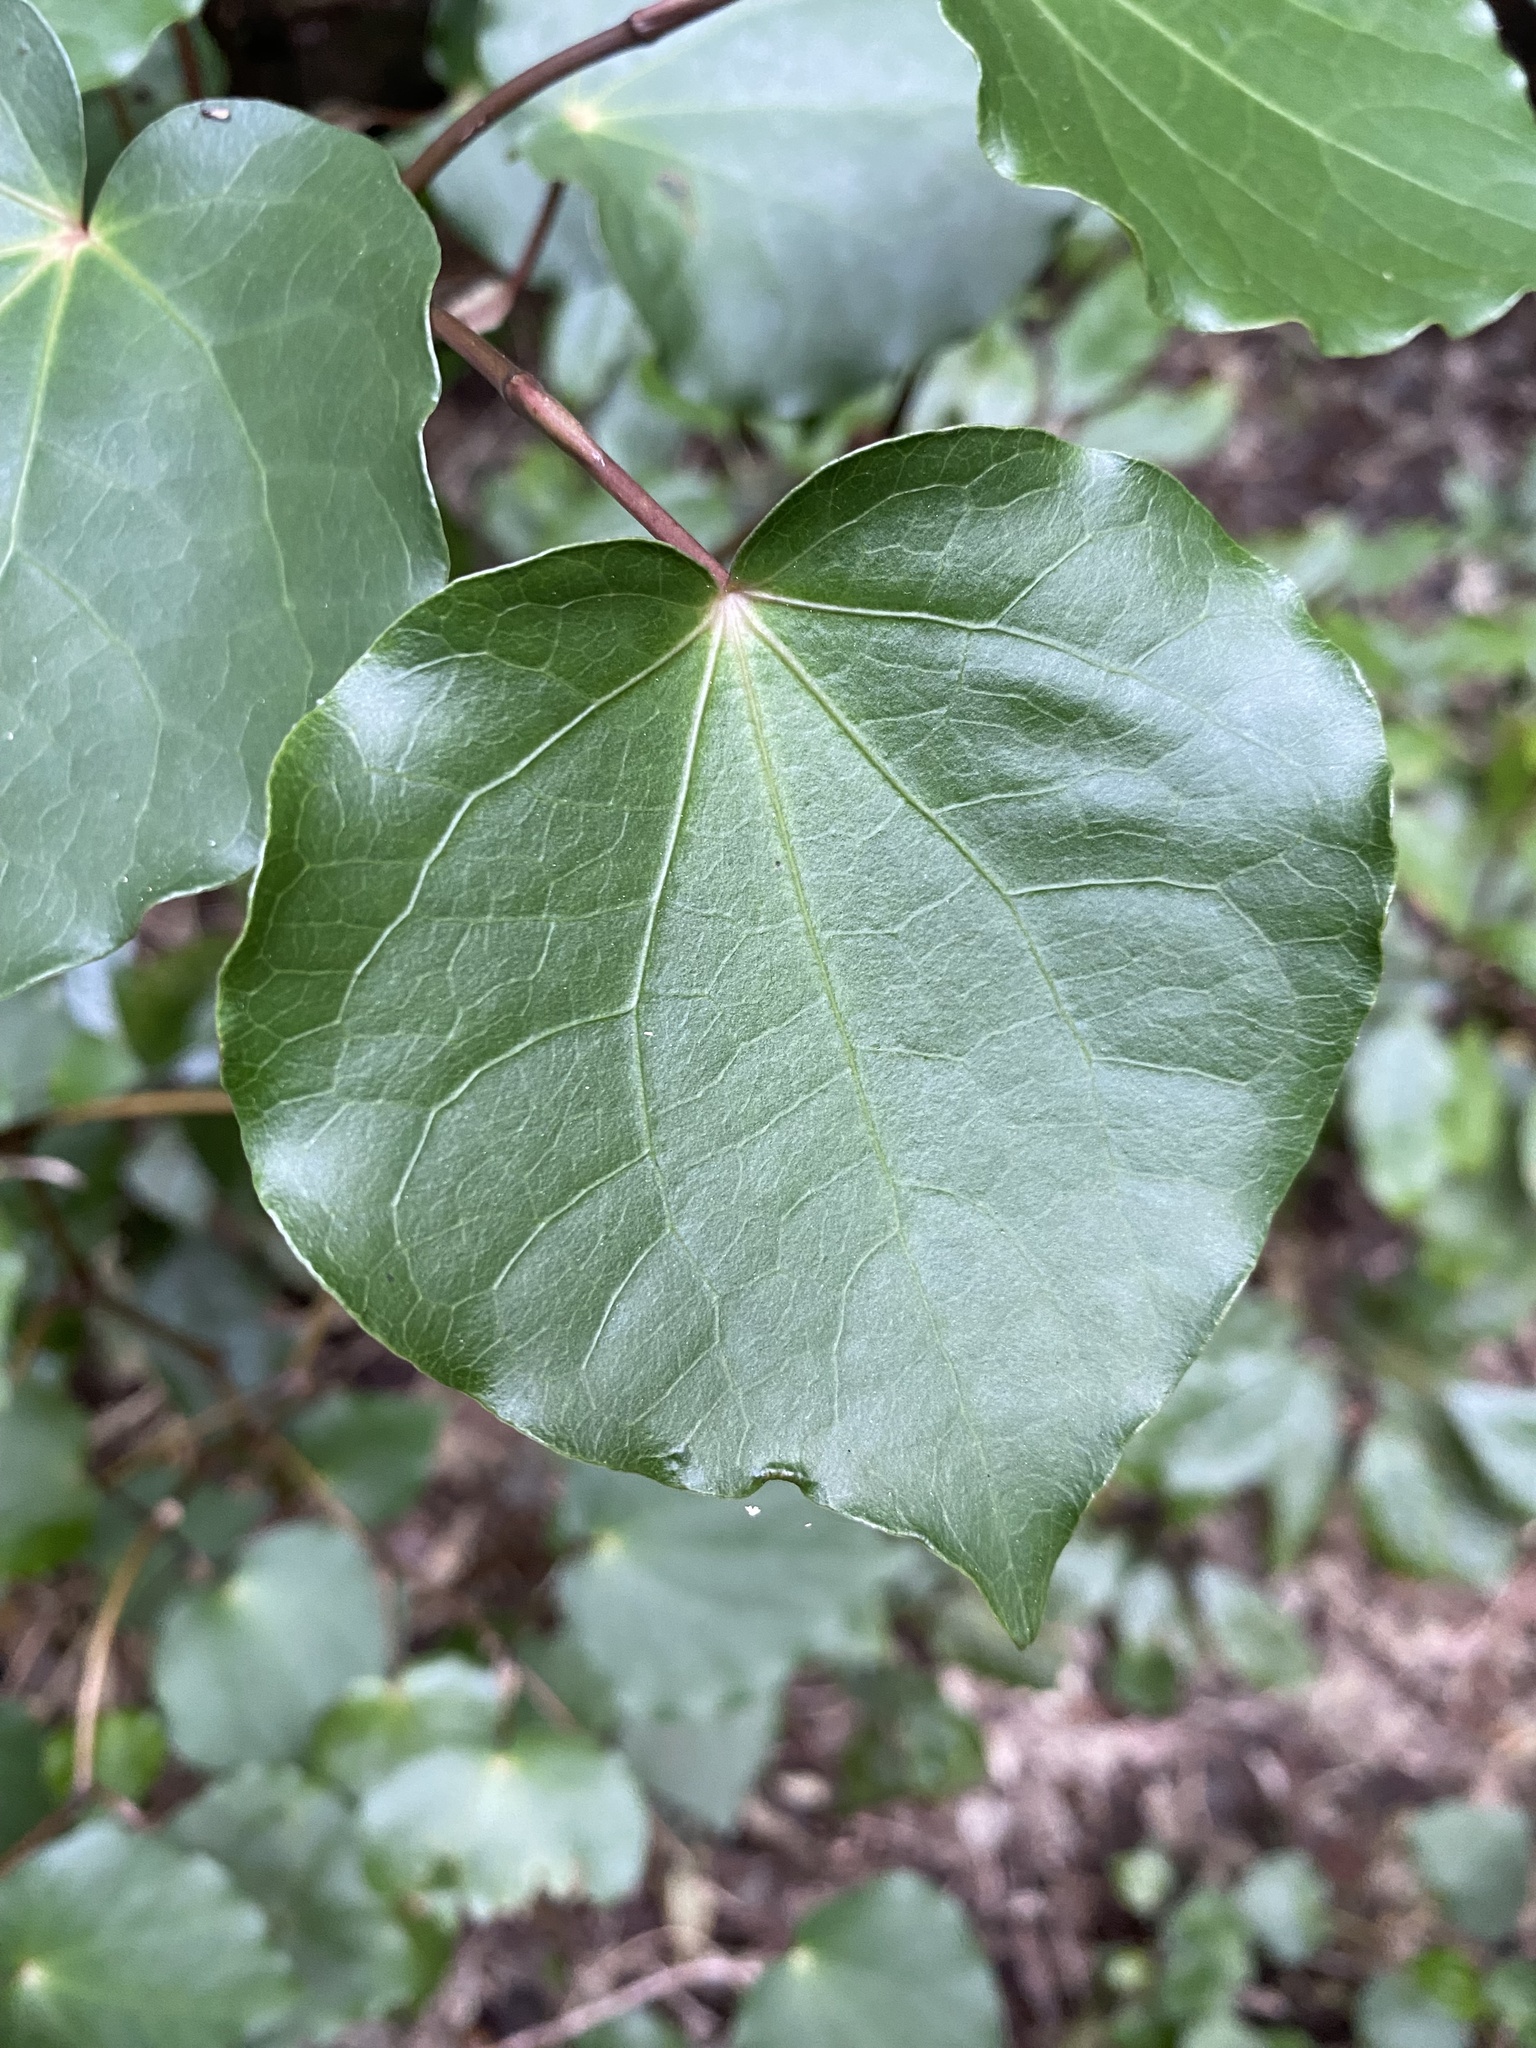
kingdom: Plantae
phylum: Tracheophyta
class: Magnoliopsida
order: Piperales
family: Piperaceae
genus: Macropiper
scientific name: Macropiper excelsum
